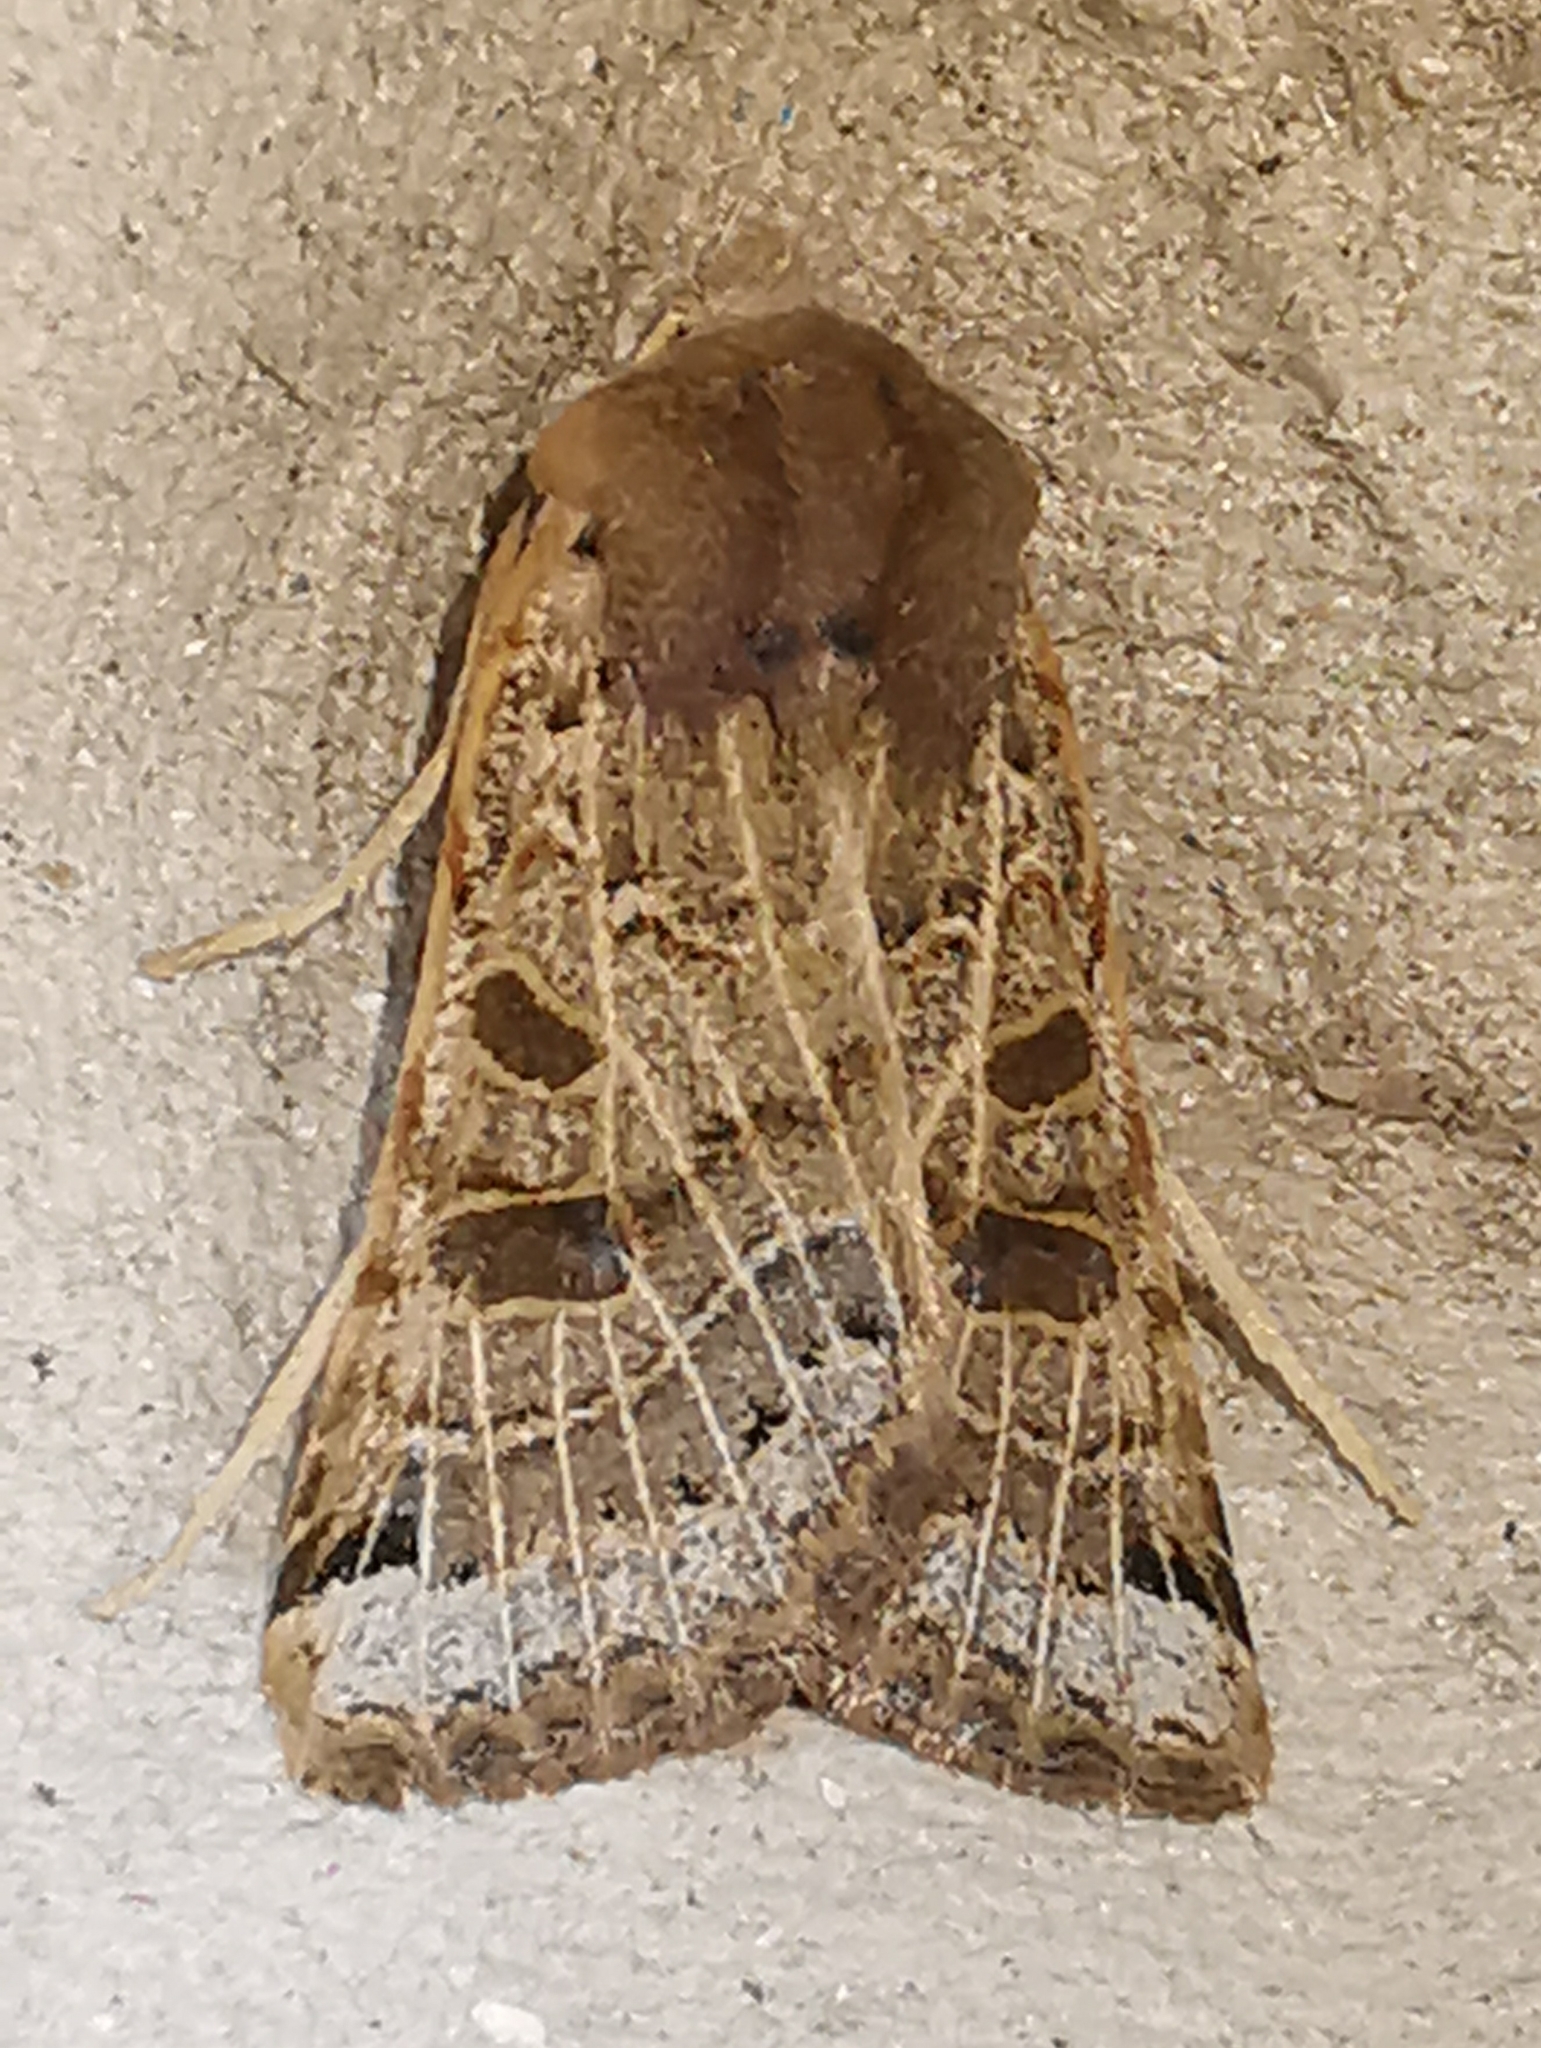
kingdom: Animalia
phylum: Arthropoda
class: Insecta
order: Lepidoptera
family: Noctuidae
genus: Agrochola
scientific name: Agrochola lunosa
